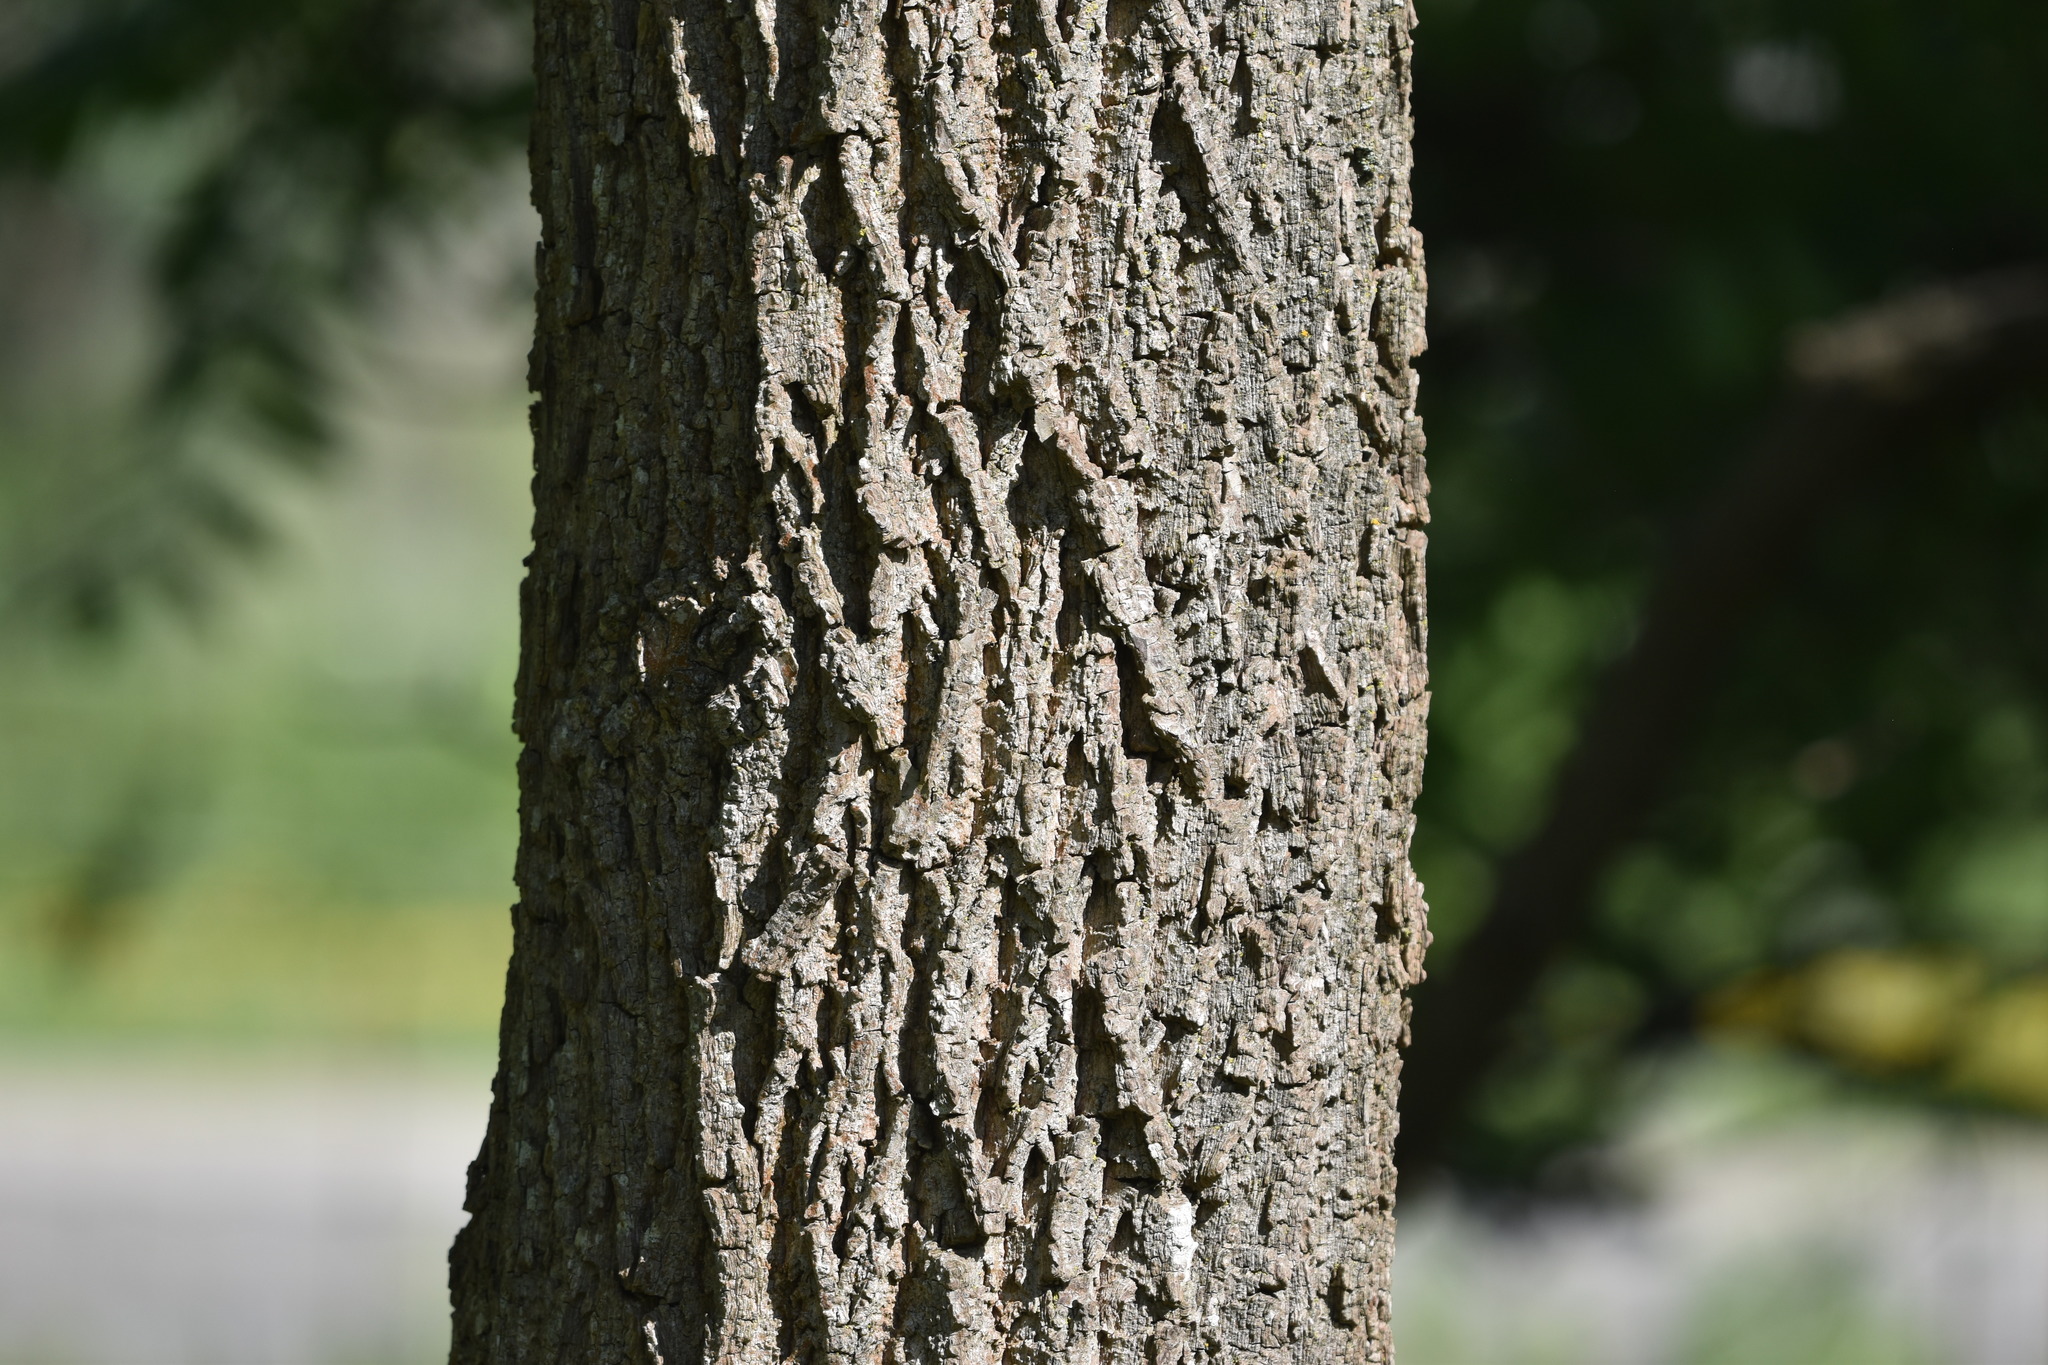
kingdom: Plantae
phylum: Tracheophyta
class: Magnoliopsida
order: Fagales
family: Juglandaceae
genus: Juglans
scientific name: Juglans nigra
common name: Black walnut
